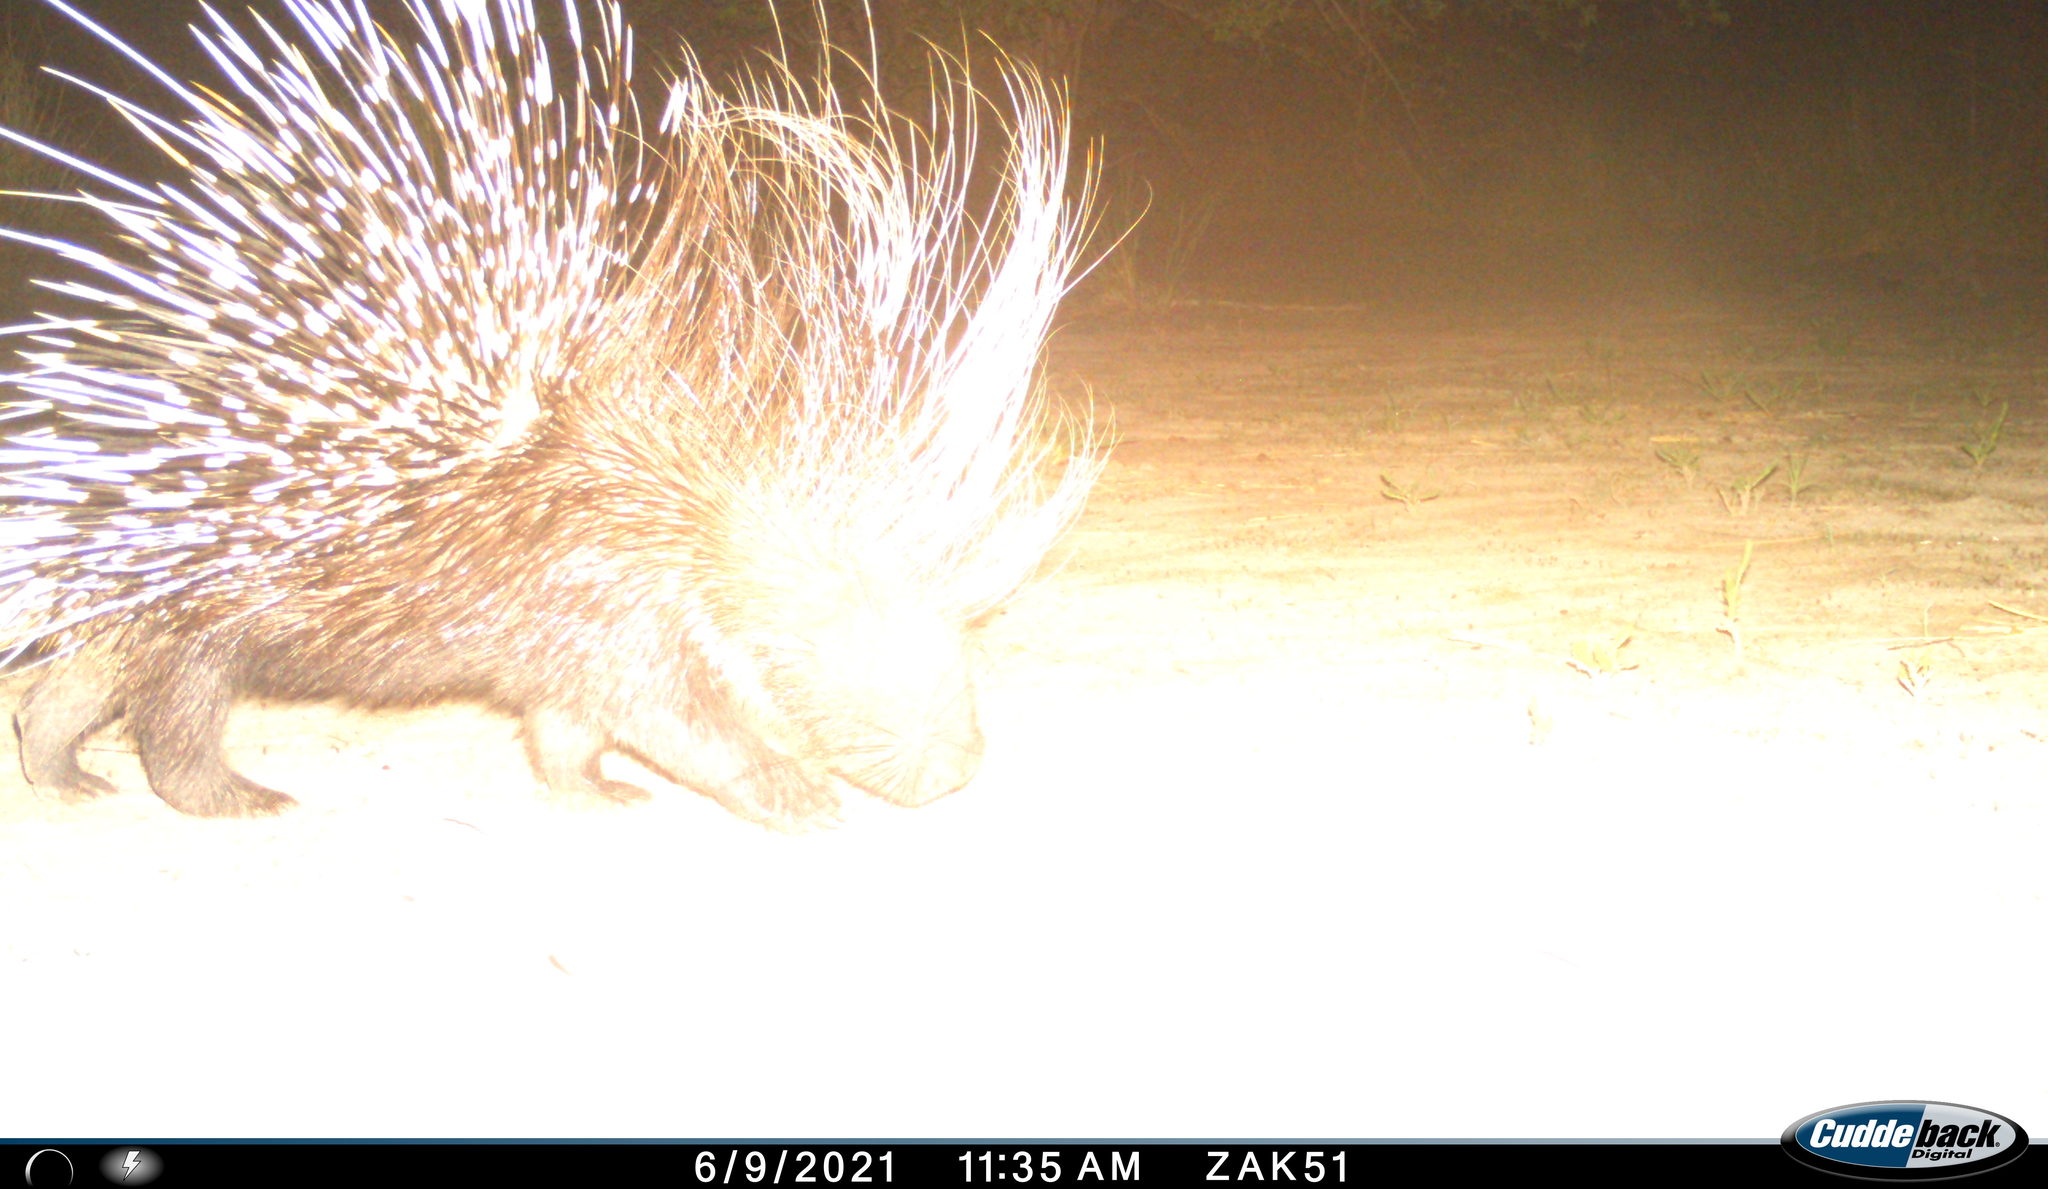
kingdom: Animalia
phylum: Chordata
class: Mammalia
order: Rodentia
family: Hystricidae
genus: Hystrix
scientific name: Hystrix cristata
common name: Crested porcupine
